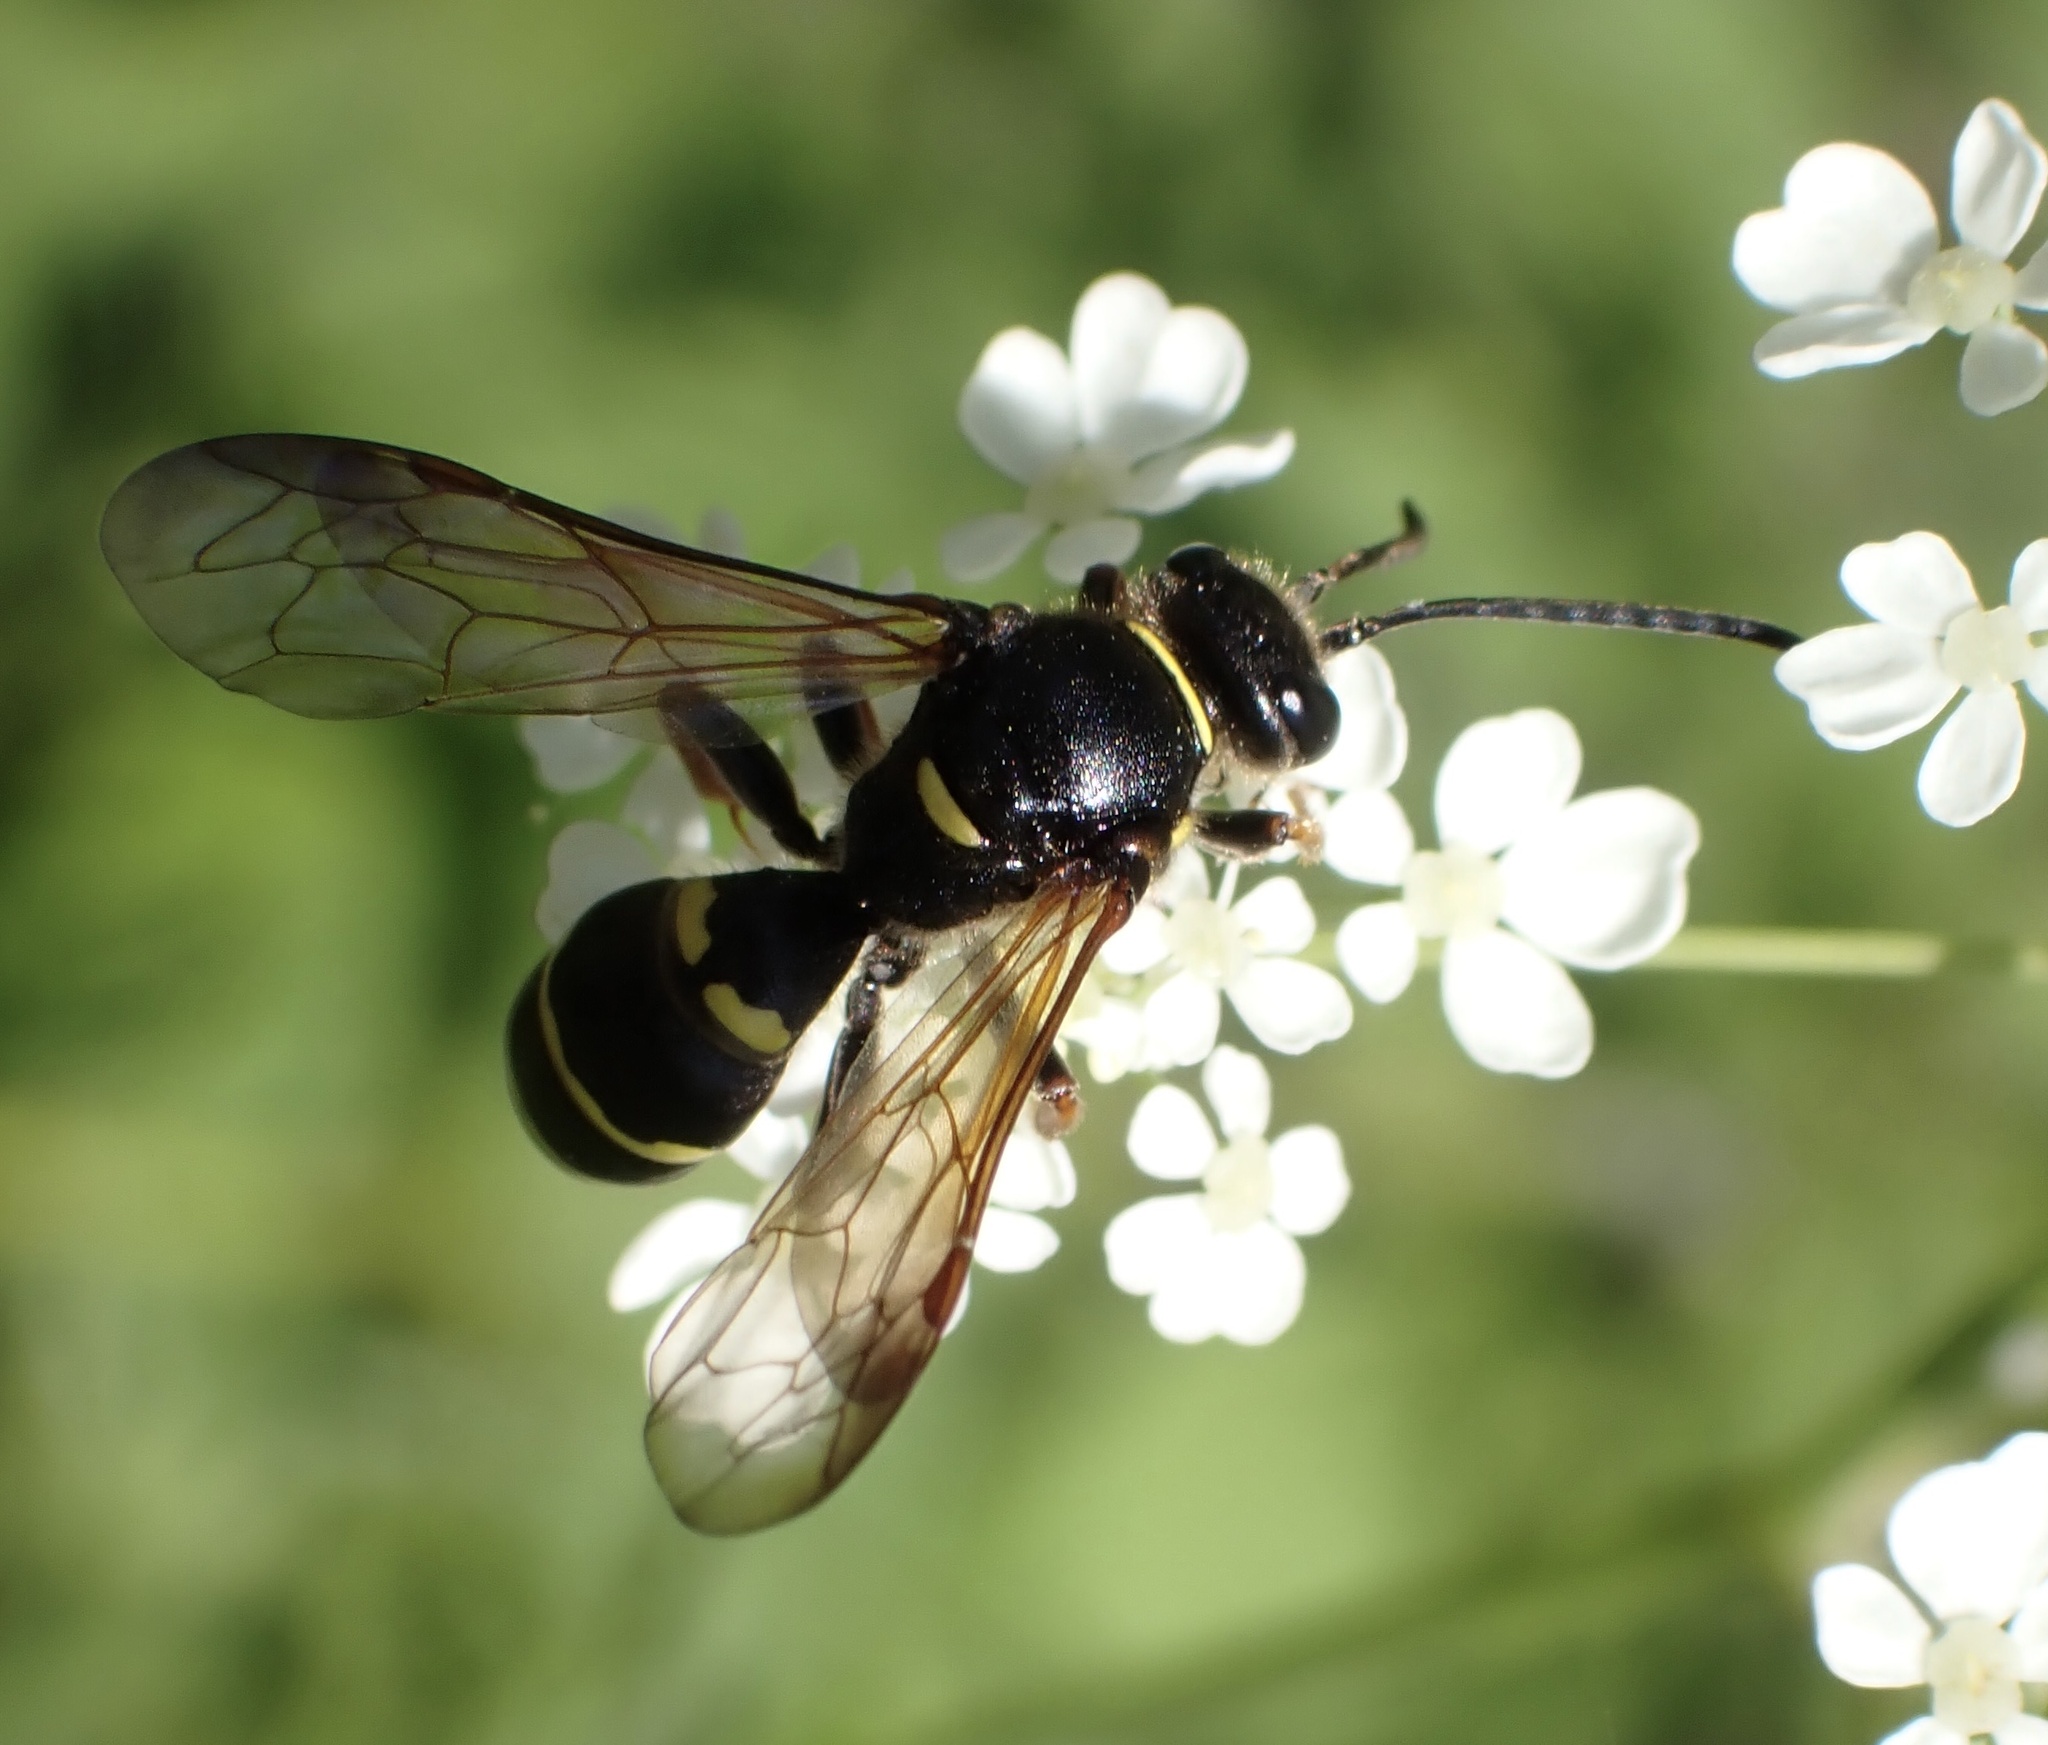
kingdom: Animalia
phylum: Arthropoda
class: Insecta
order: Hymenoptera
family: Crabronidae
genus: Argogorytes
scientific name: Argogorytes mystaceus
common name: Field digger wasp
